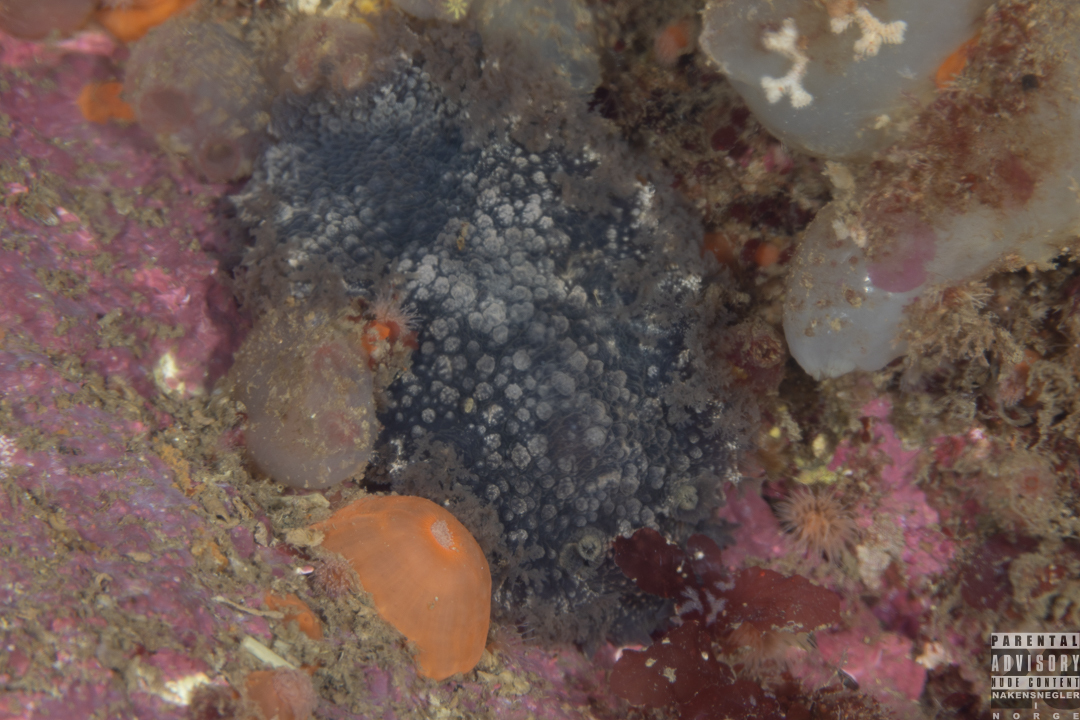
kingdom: Animalia
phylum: Mollusca
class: Gastropoda
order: Nudibranchia
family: Tritoniidae
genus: Tritonia
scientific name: Tritonia hombergii
